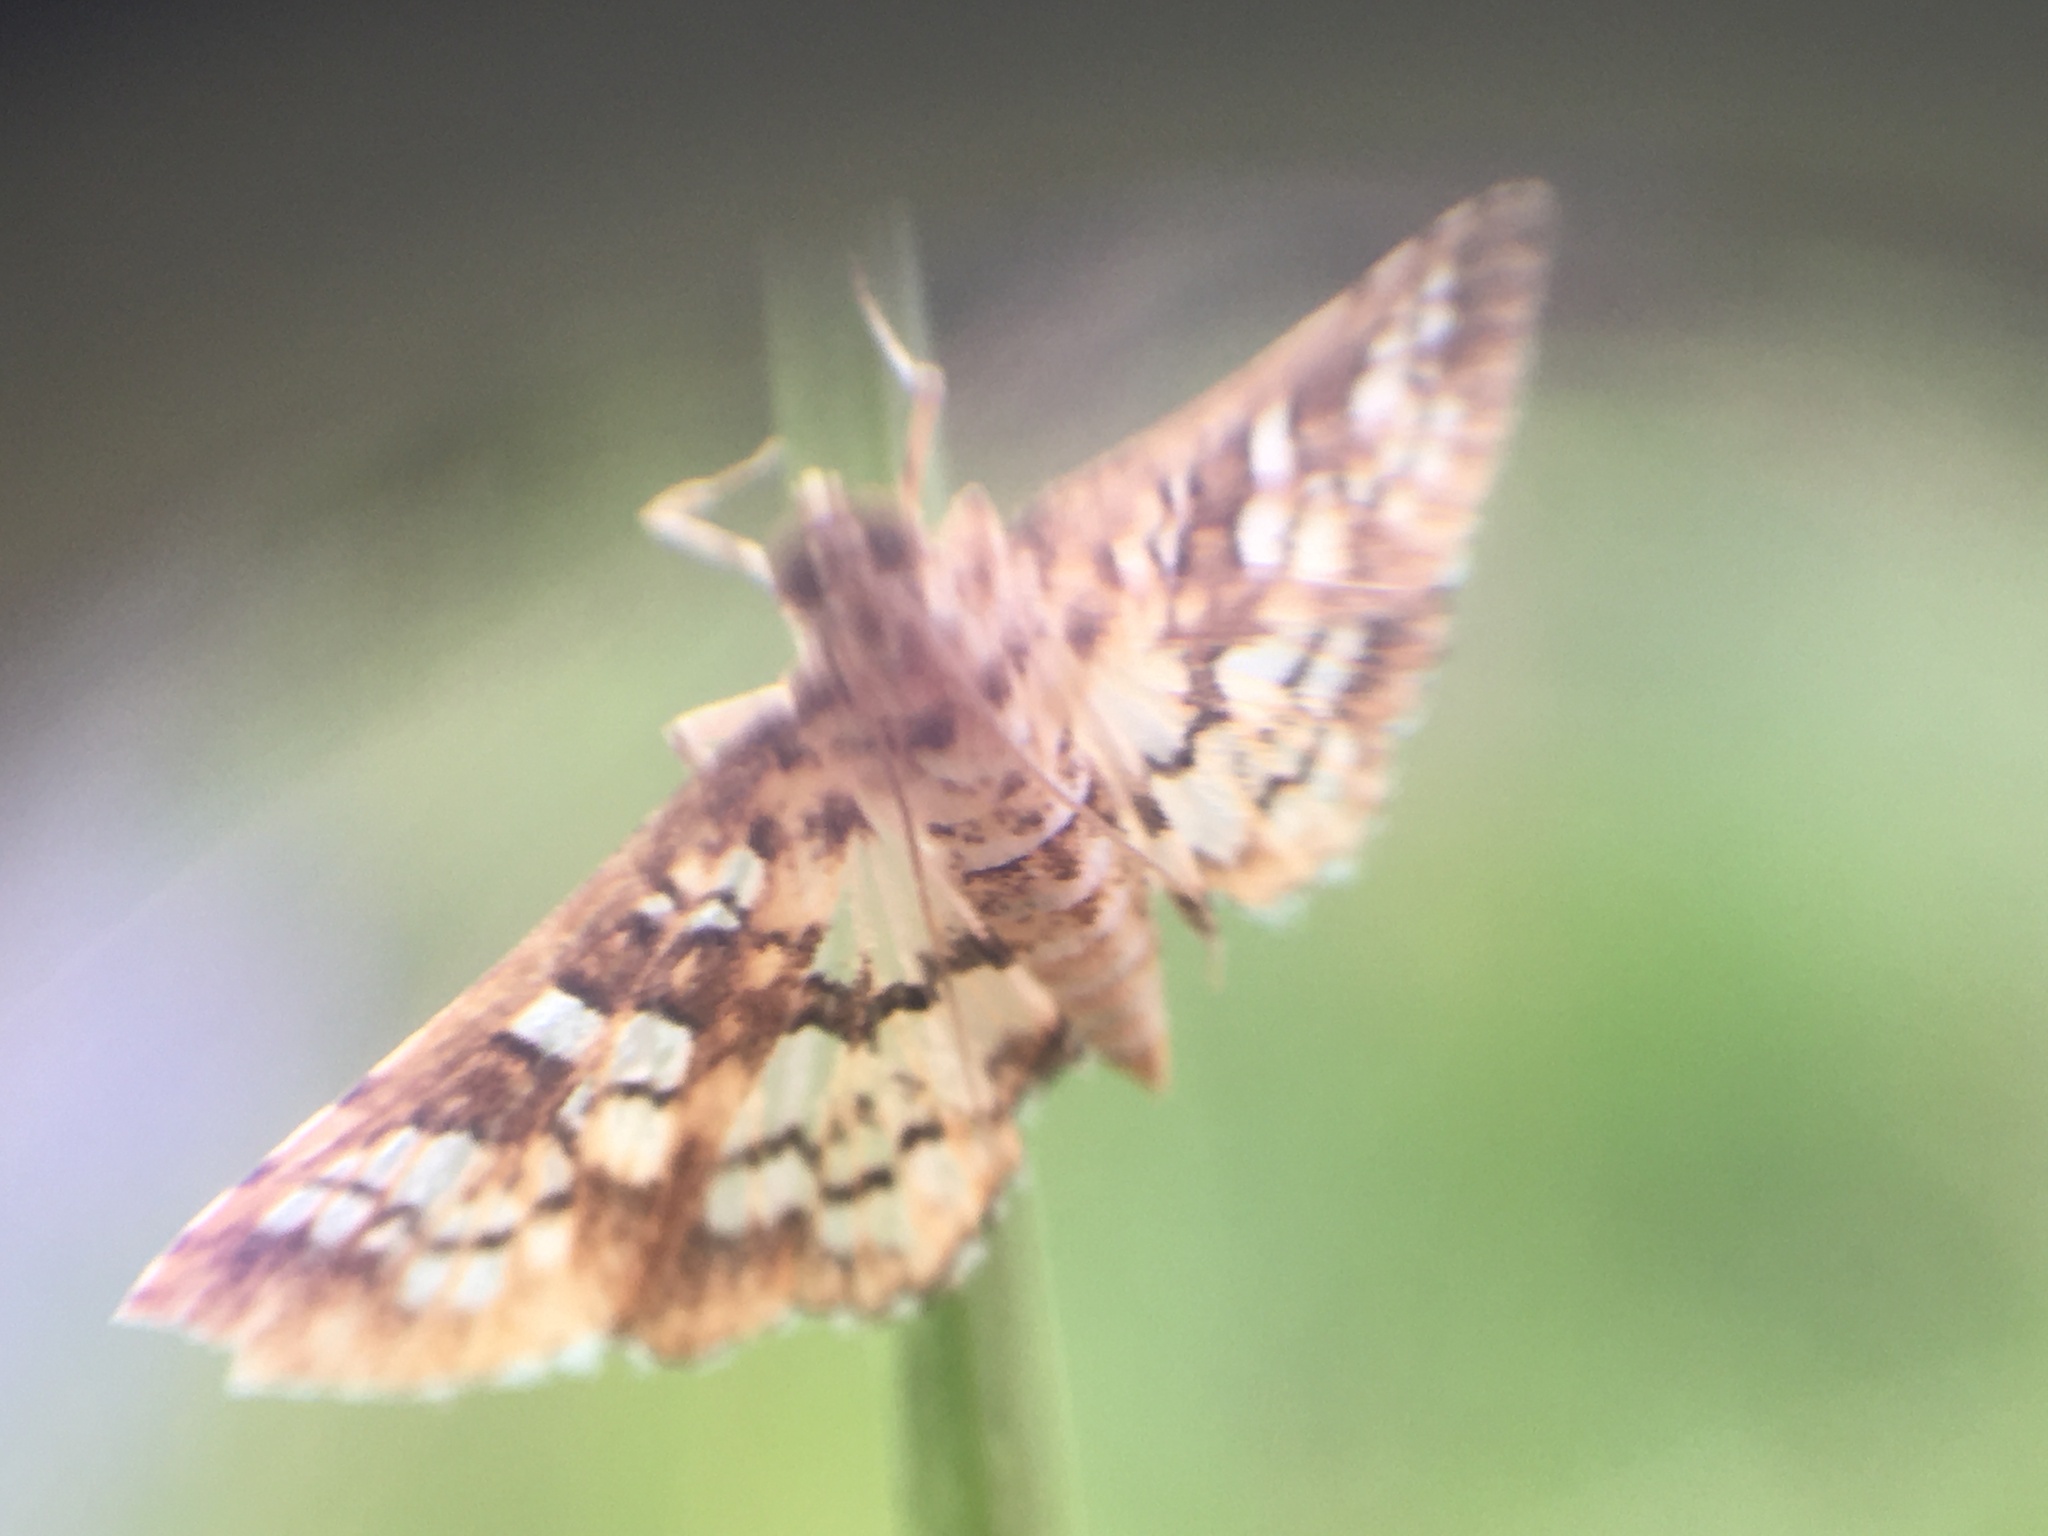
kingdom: Animalia
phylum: Arthropoda
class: Insecta
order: Lepidoptera
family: Crambidae
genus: Samea
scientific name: Samea ecclesialis
